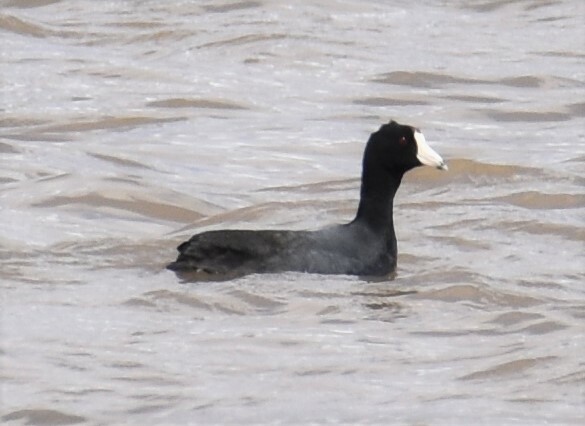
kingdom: Animalia
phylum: Chordata
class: Aves
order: Gruiformes
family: Rallidae
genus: Fulica
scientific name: Fulica americana
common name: American coot
